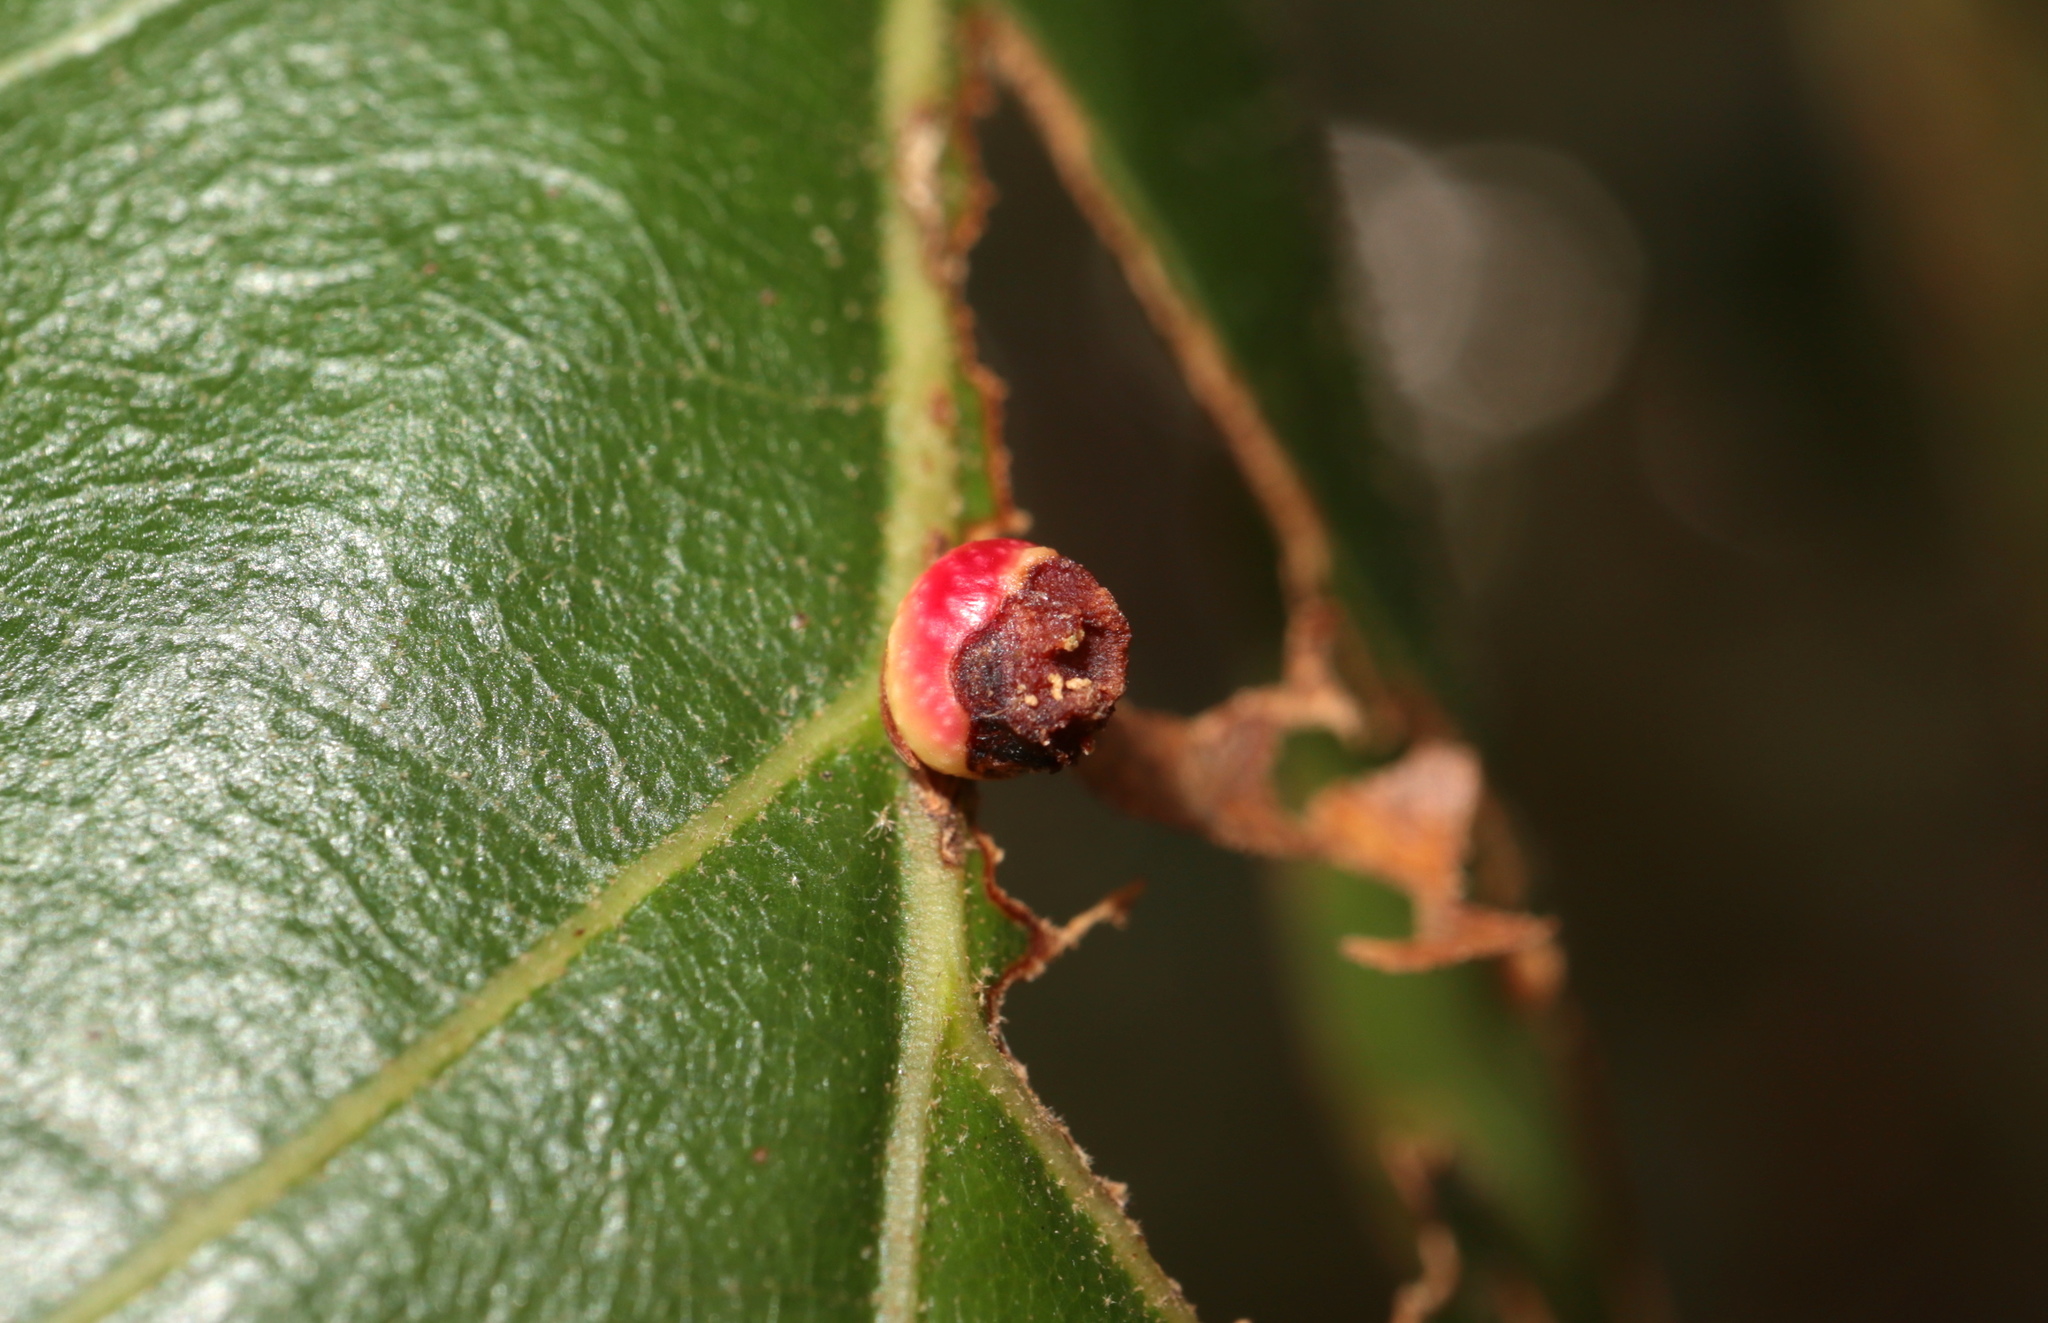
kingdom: Animalia
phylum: Arthropoda
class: Insecta
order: Hymenoptera
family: Cynipidae
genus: Kokkocynips
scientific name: Kokkocynips rileyi
